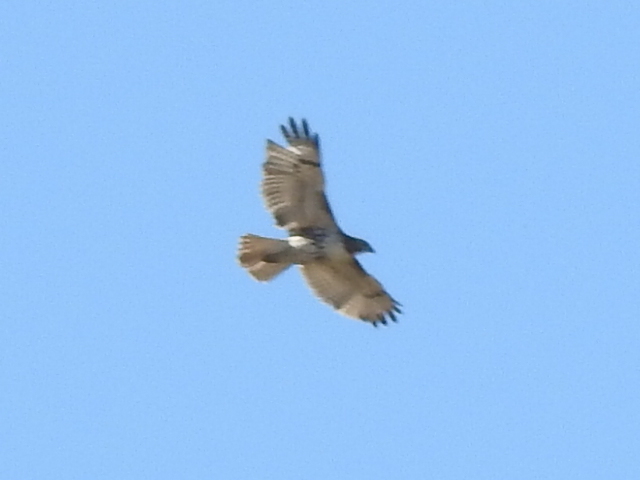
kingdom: Animalia
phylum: Chordata
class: Aves
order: Accipitriformes
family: Accipitridae
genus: Buteo
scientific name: Buteo jamaicensis
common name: Red-tailed hawk
